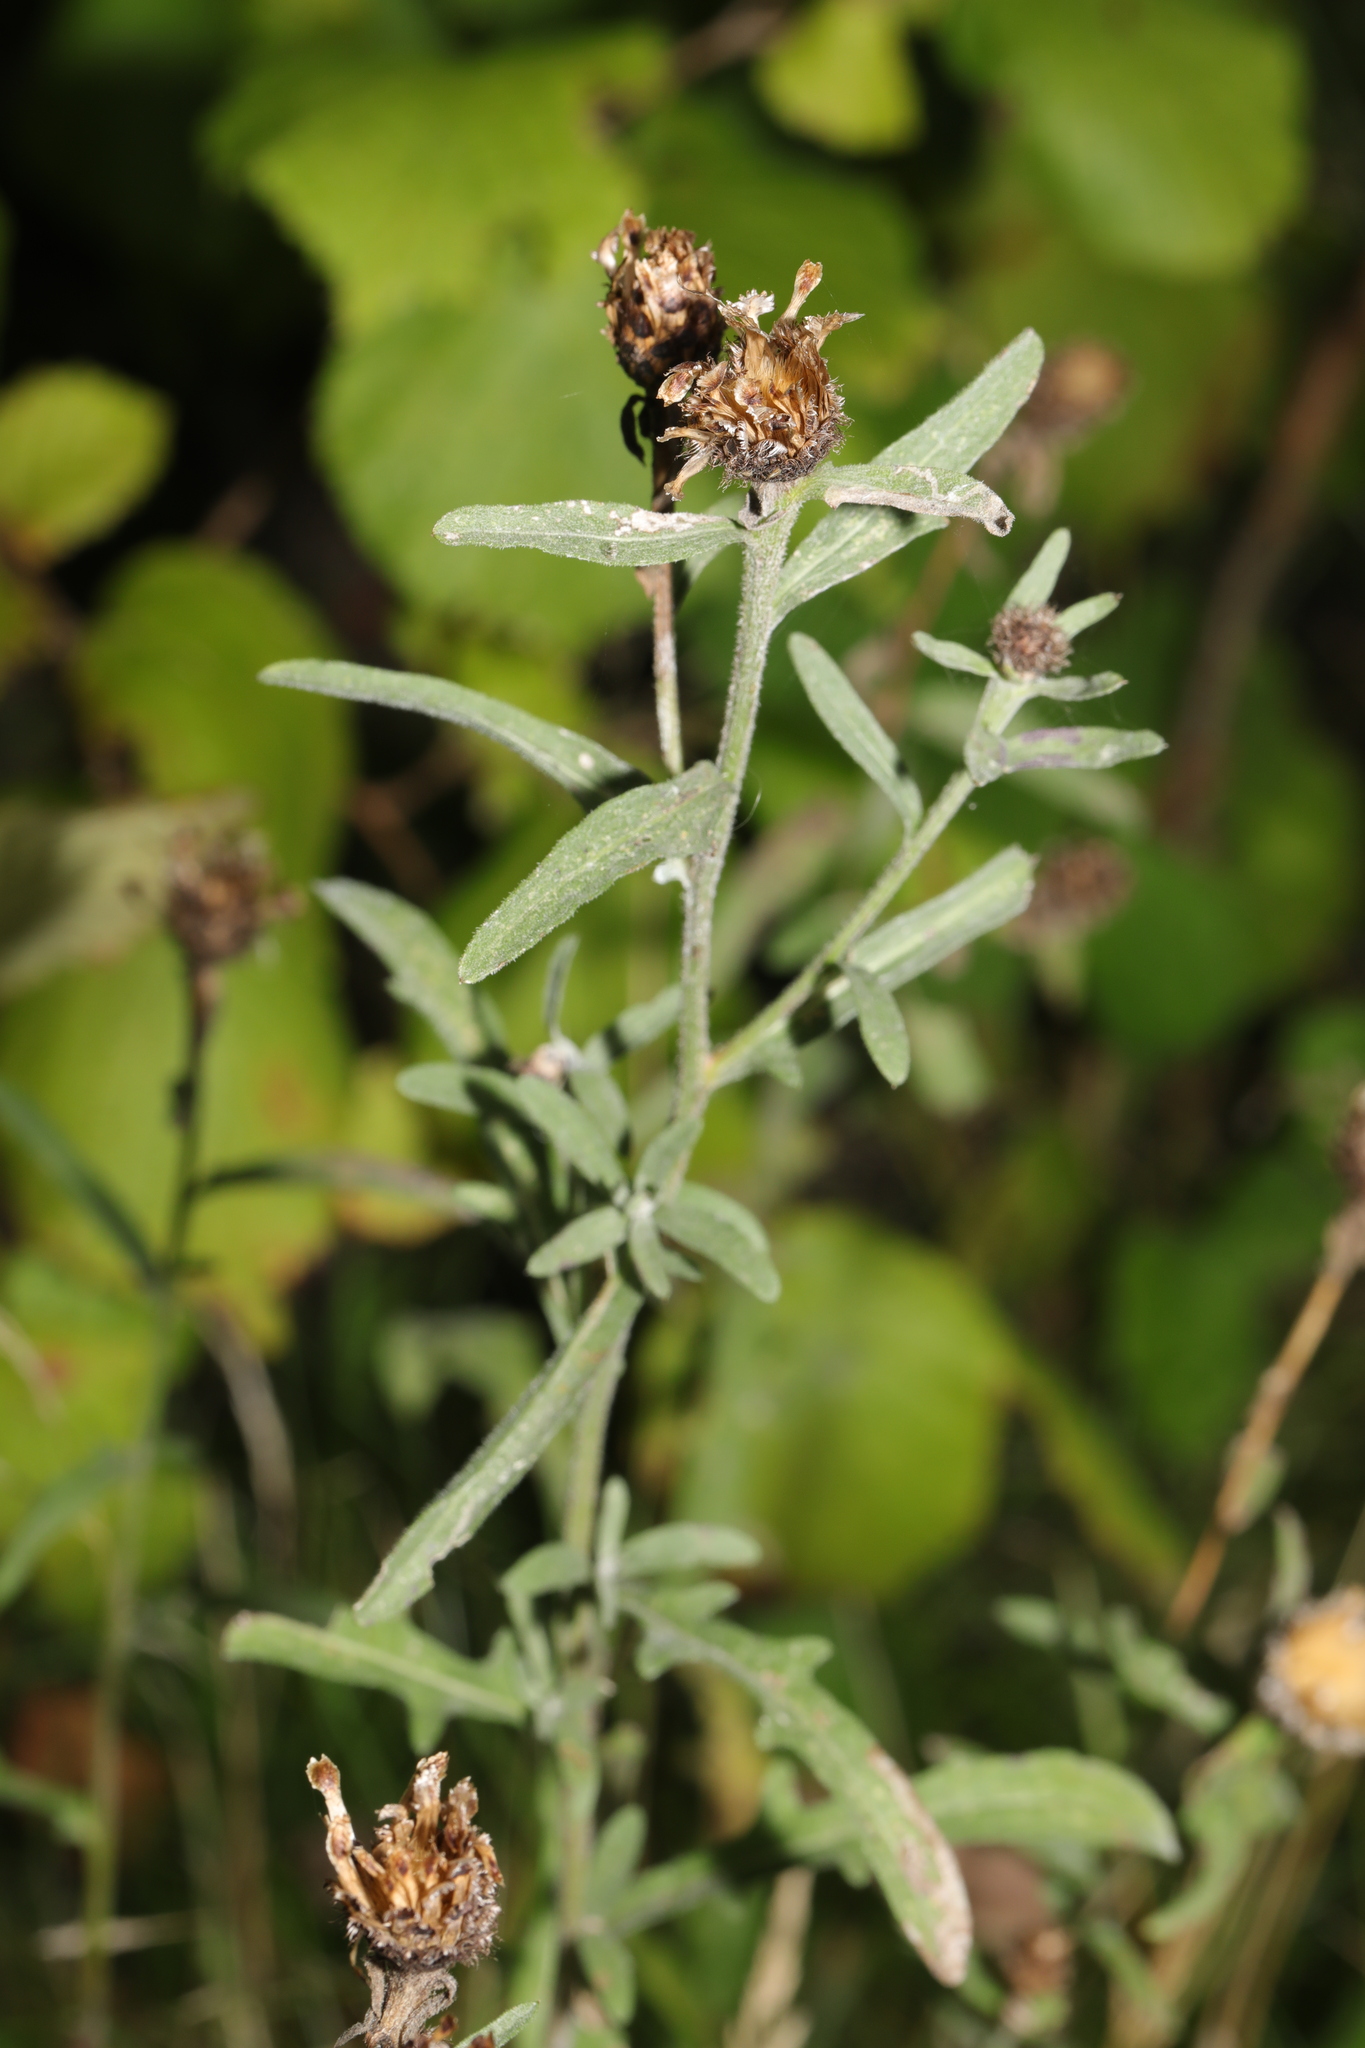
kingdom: Plantae
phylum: Tracheophyta
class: Magnoliopsida
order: Asterales
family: Asteraceae
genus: Centaurea
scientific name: Centaurea nigra
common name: Lesser knapweed
